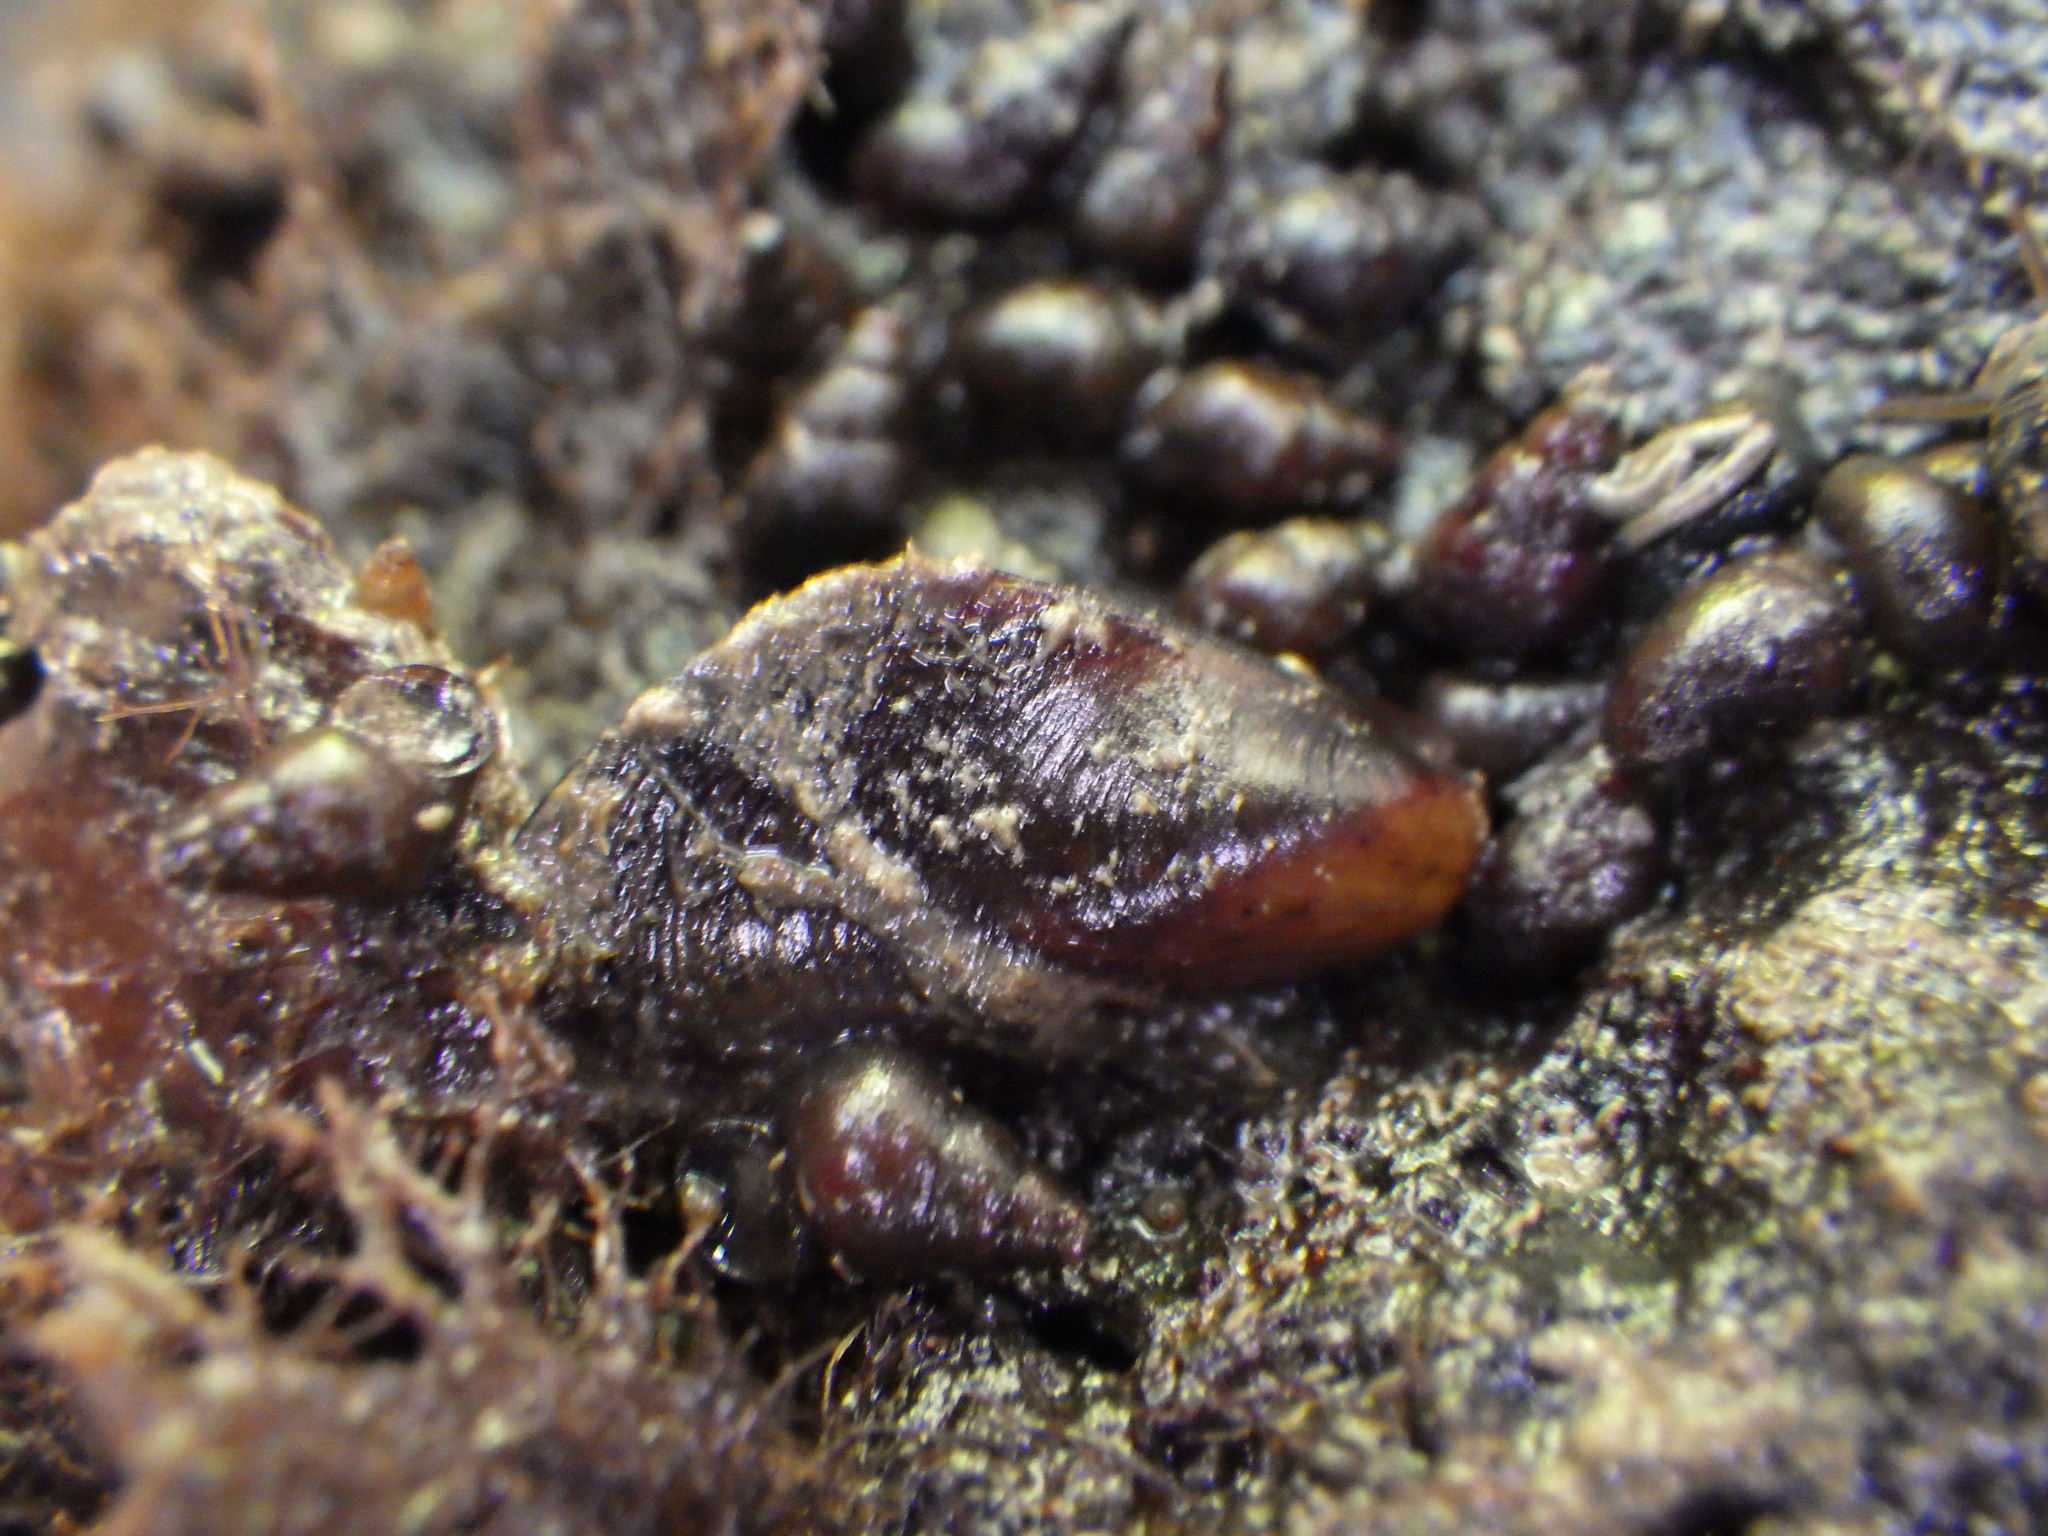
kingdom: Animalia
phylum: Mollusca
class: Bivalvia
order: Mytilida
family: Mytilidae
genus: Xenostrobus
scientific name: Xenostrobus securis
